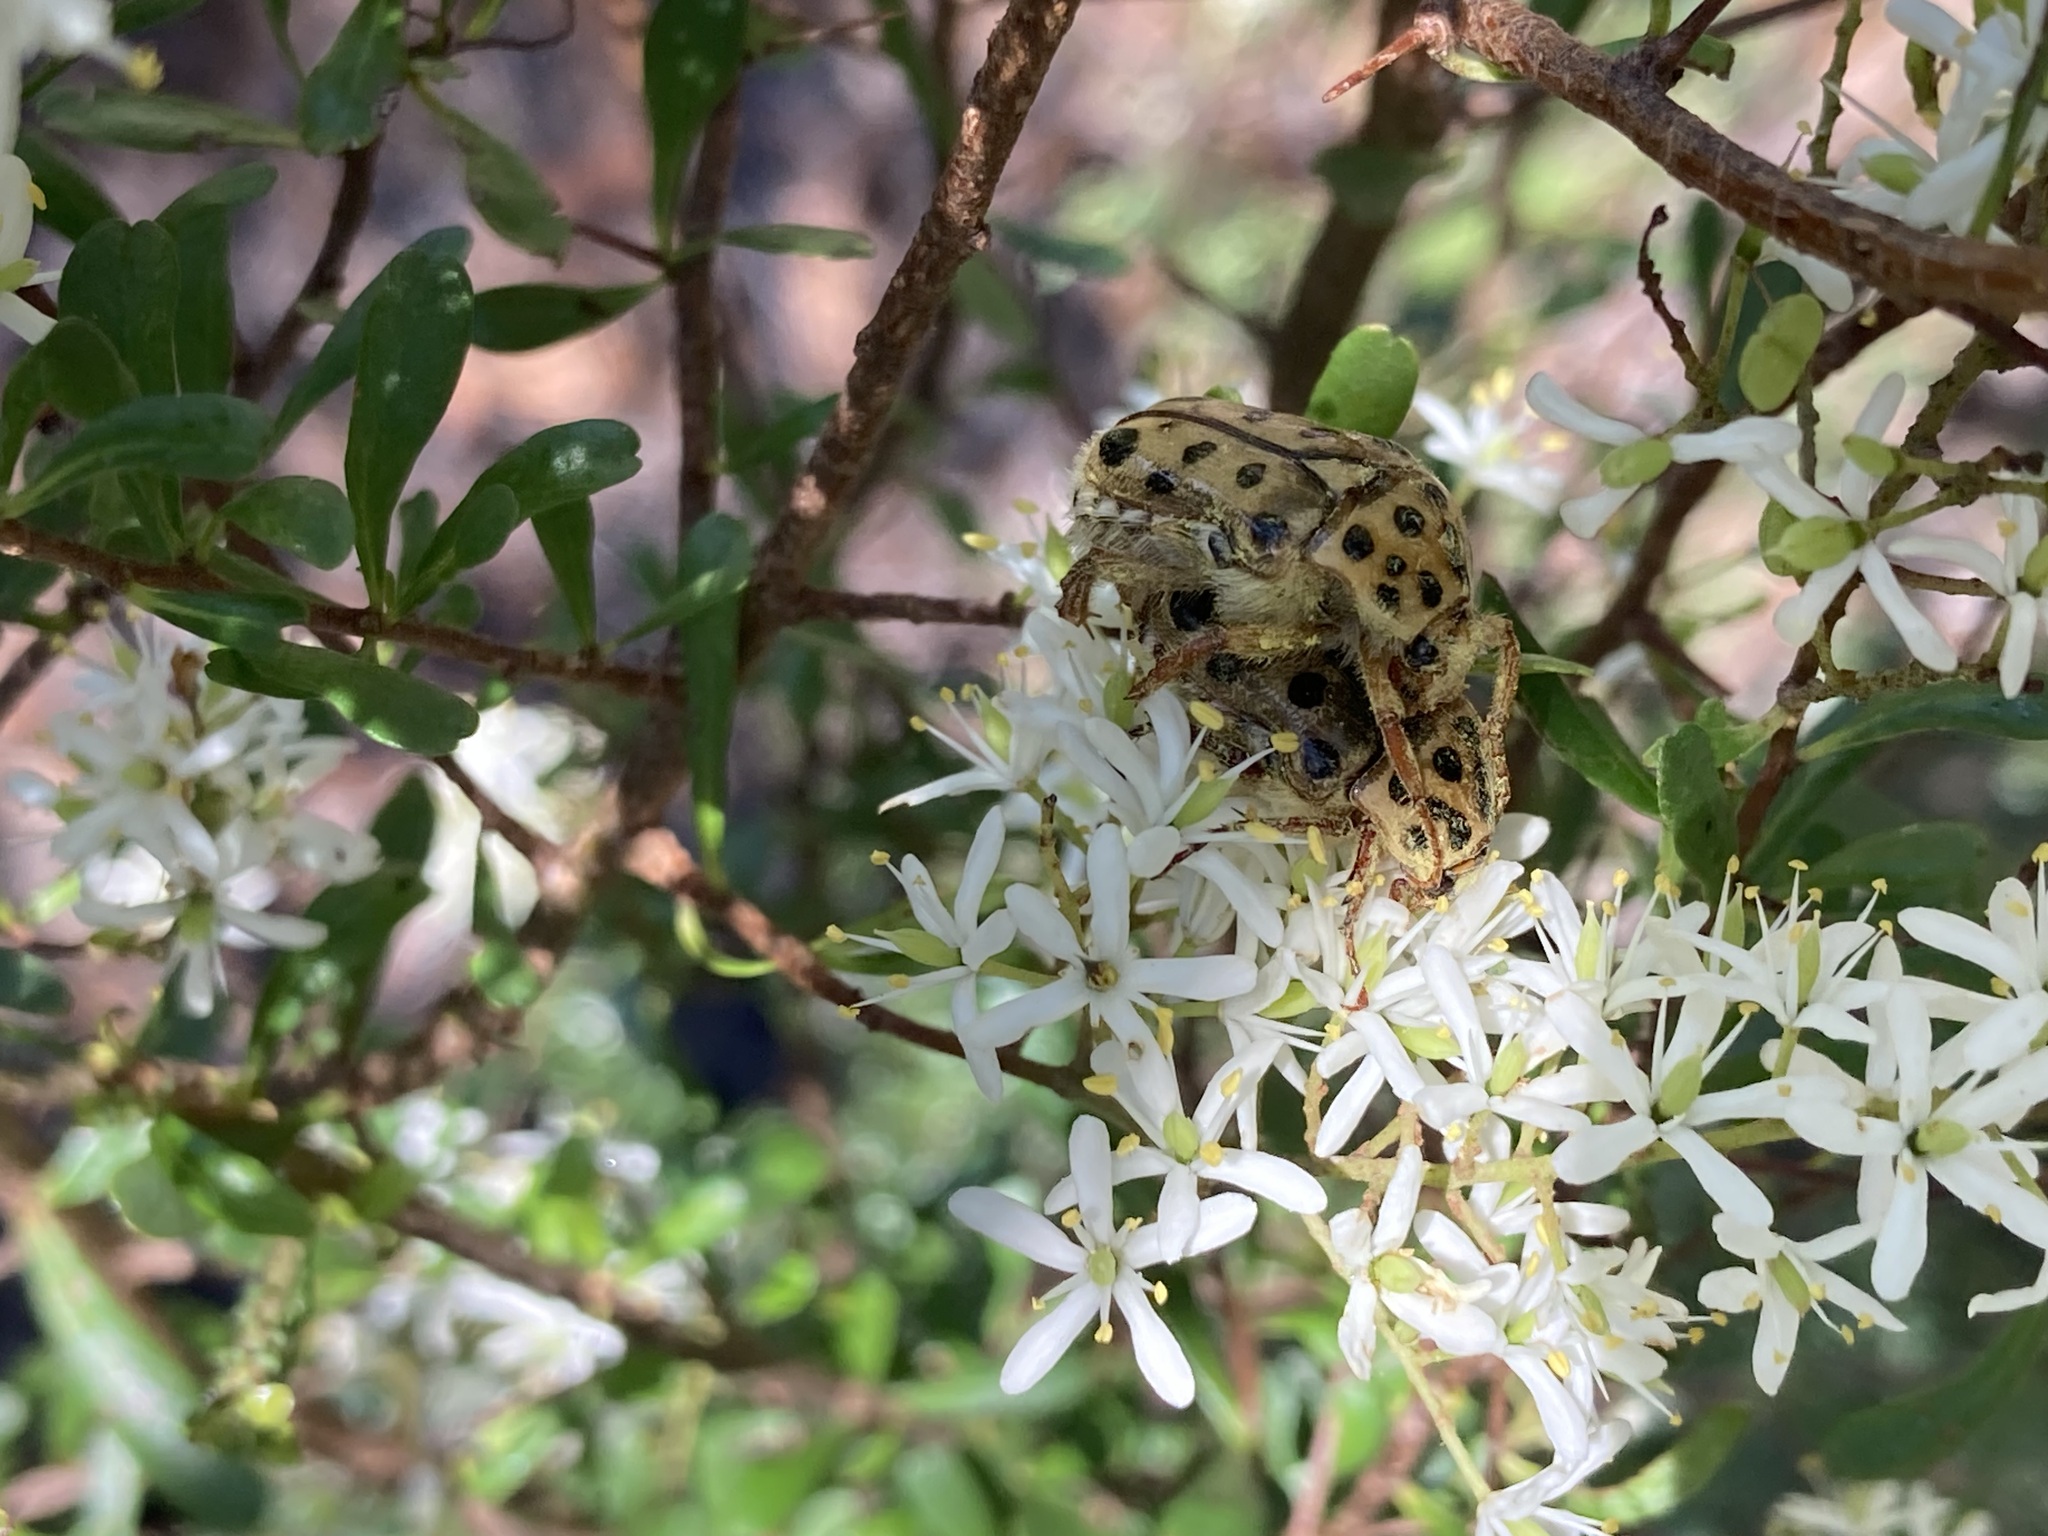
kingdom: Animalia
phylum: Arthropoda
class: Insecta
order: Coleoptera
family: Scarabaeidae
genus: Neorrhina
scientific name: Neorrhina punctatum
